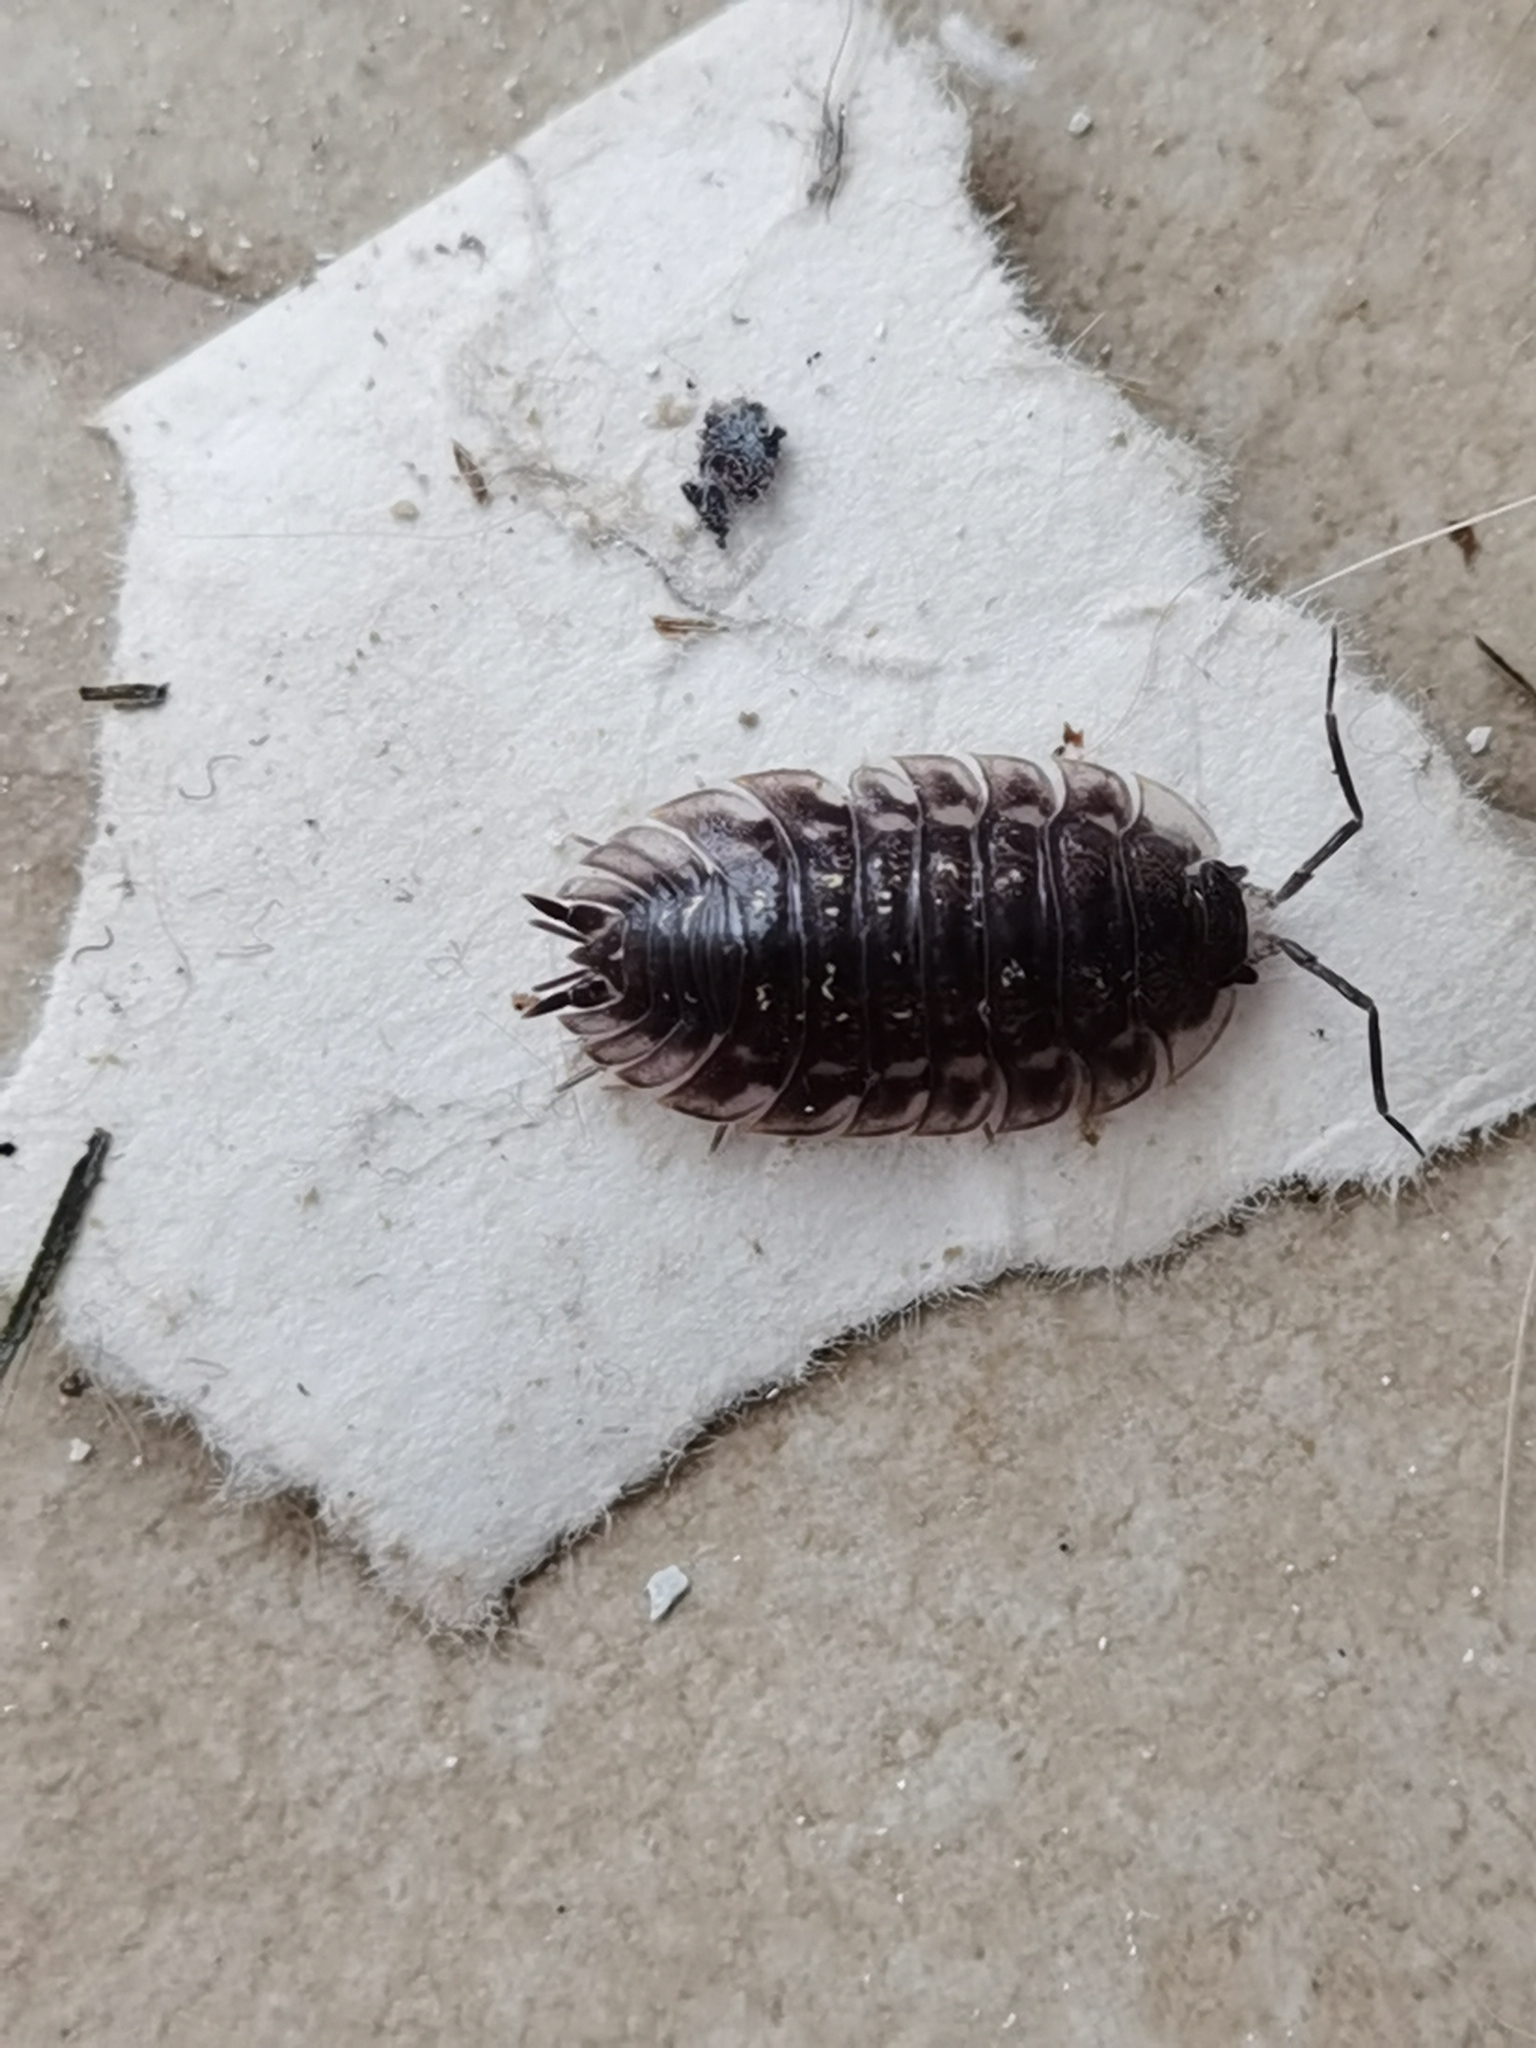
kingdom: Animalia
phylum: Arthropoda
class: Malacostraca
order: Isopoda
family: Oniscidae
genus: Oniscus
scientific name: Oniscus asellus
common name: Common shiny woodlouse
